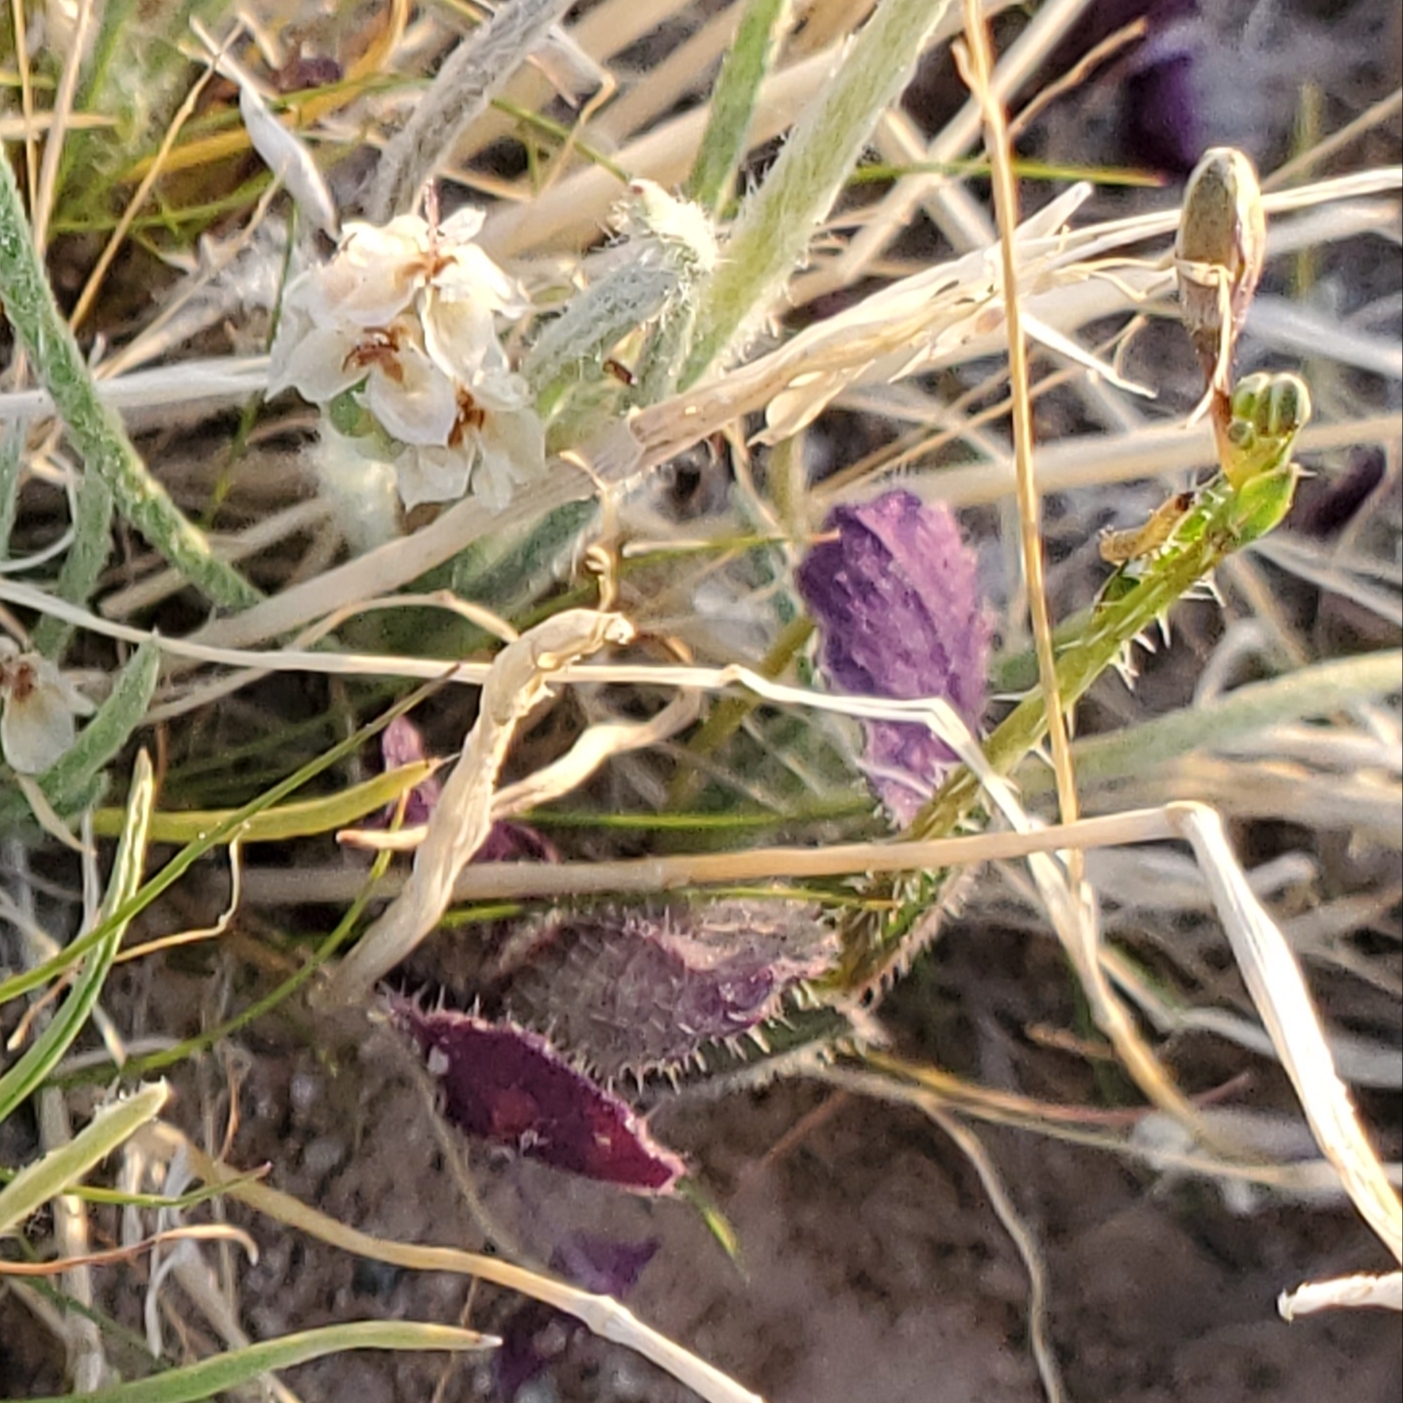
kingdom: Plantae
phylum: Tracheophyta
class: Magnoliopsida
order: Brassicales
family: Brassicaceae
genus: Brassica
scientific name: Brassica tournefortii
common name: Pale cabbage
